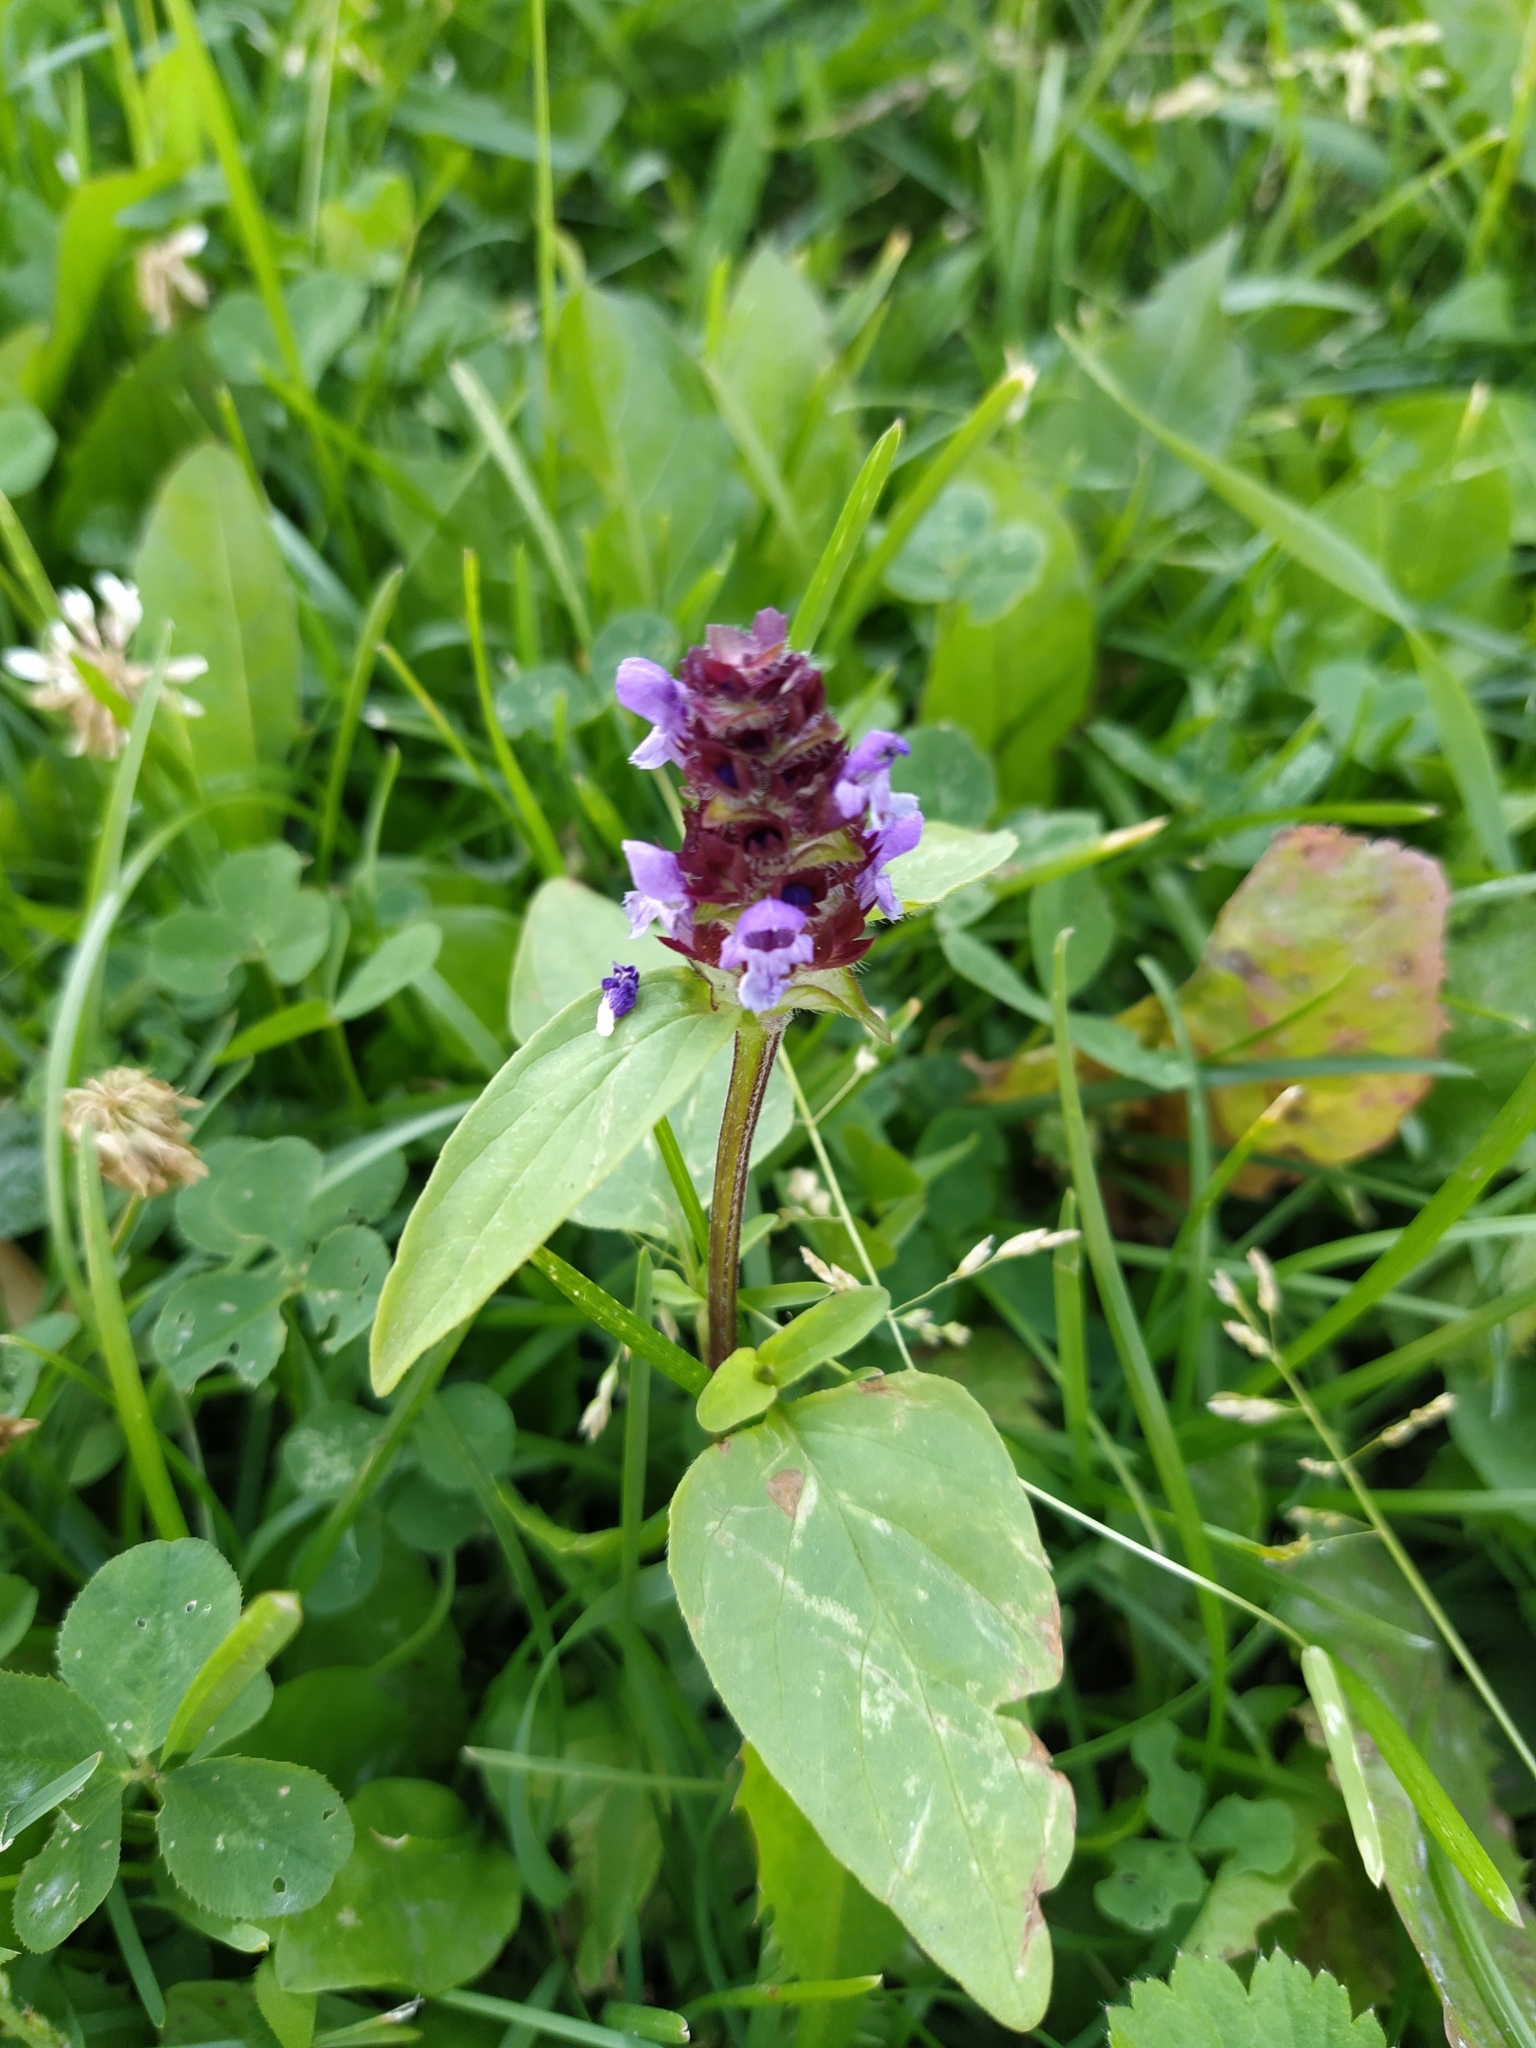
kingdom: Plantae
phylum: Tracheophyta
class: Magnoliopsida
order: Lamiales
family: Lamiaceae
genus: Prunella
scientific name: Prunella vulgaris
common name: Heal-all
